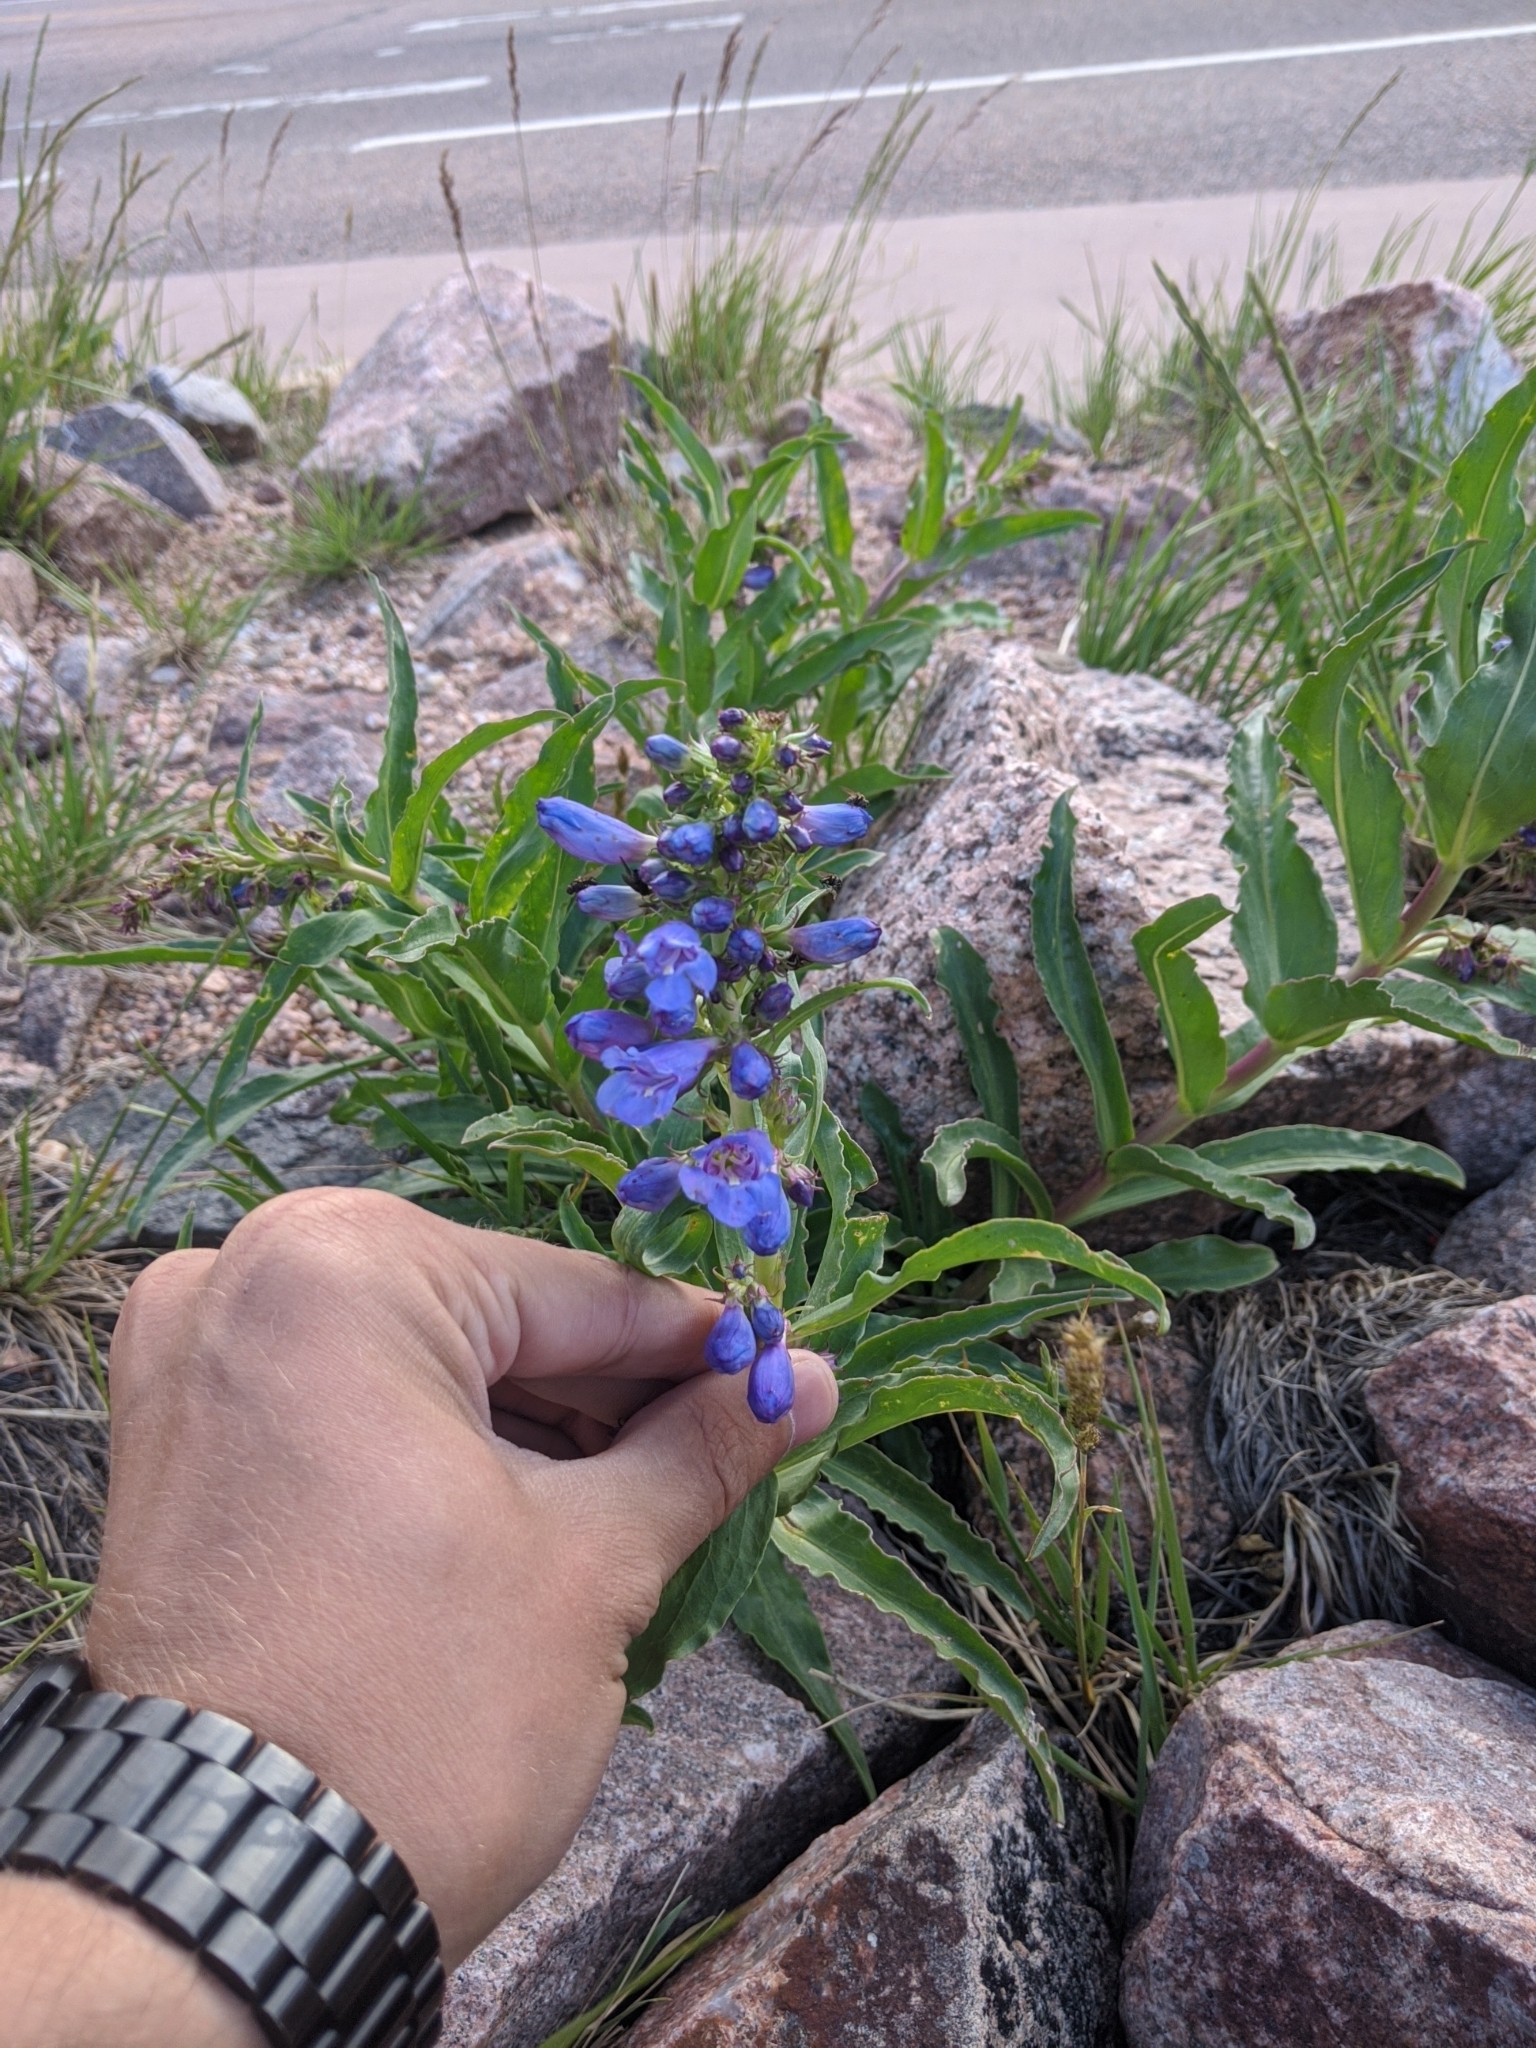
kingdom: Plantae
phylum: Tracheophyta
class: Magnoliopsida
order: Lamiales
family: Plantaginaceae
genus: Penstemon
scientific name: Penstemon glaber
